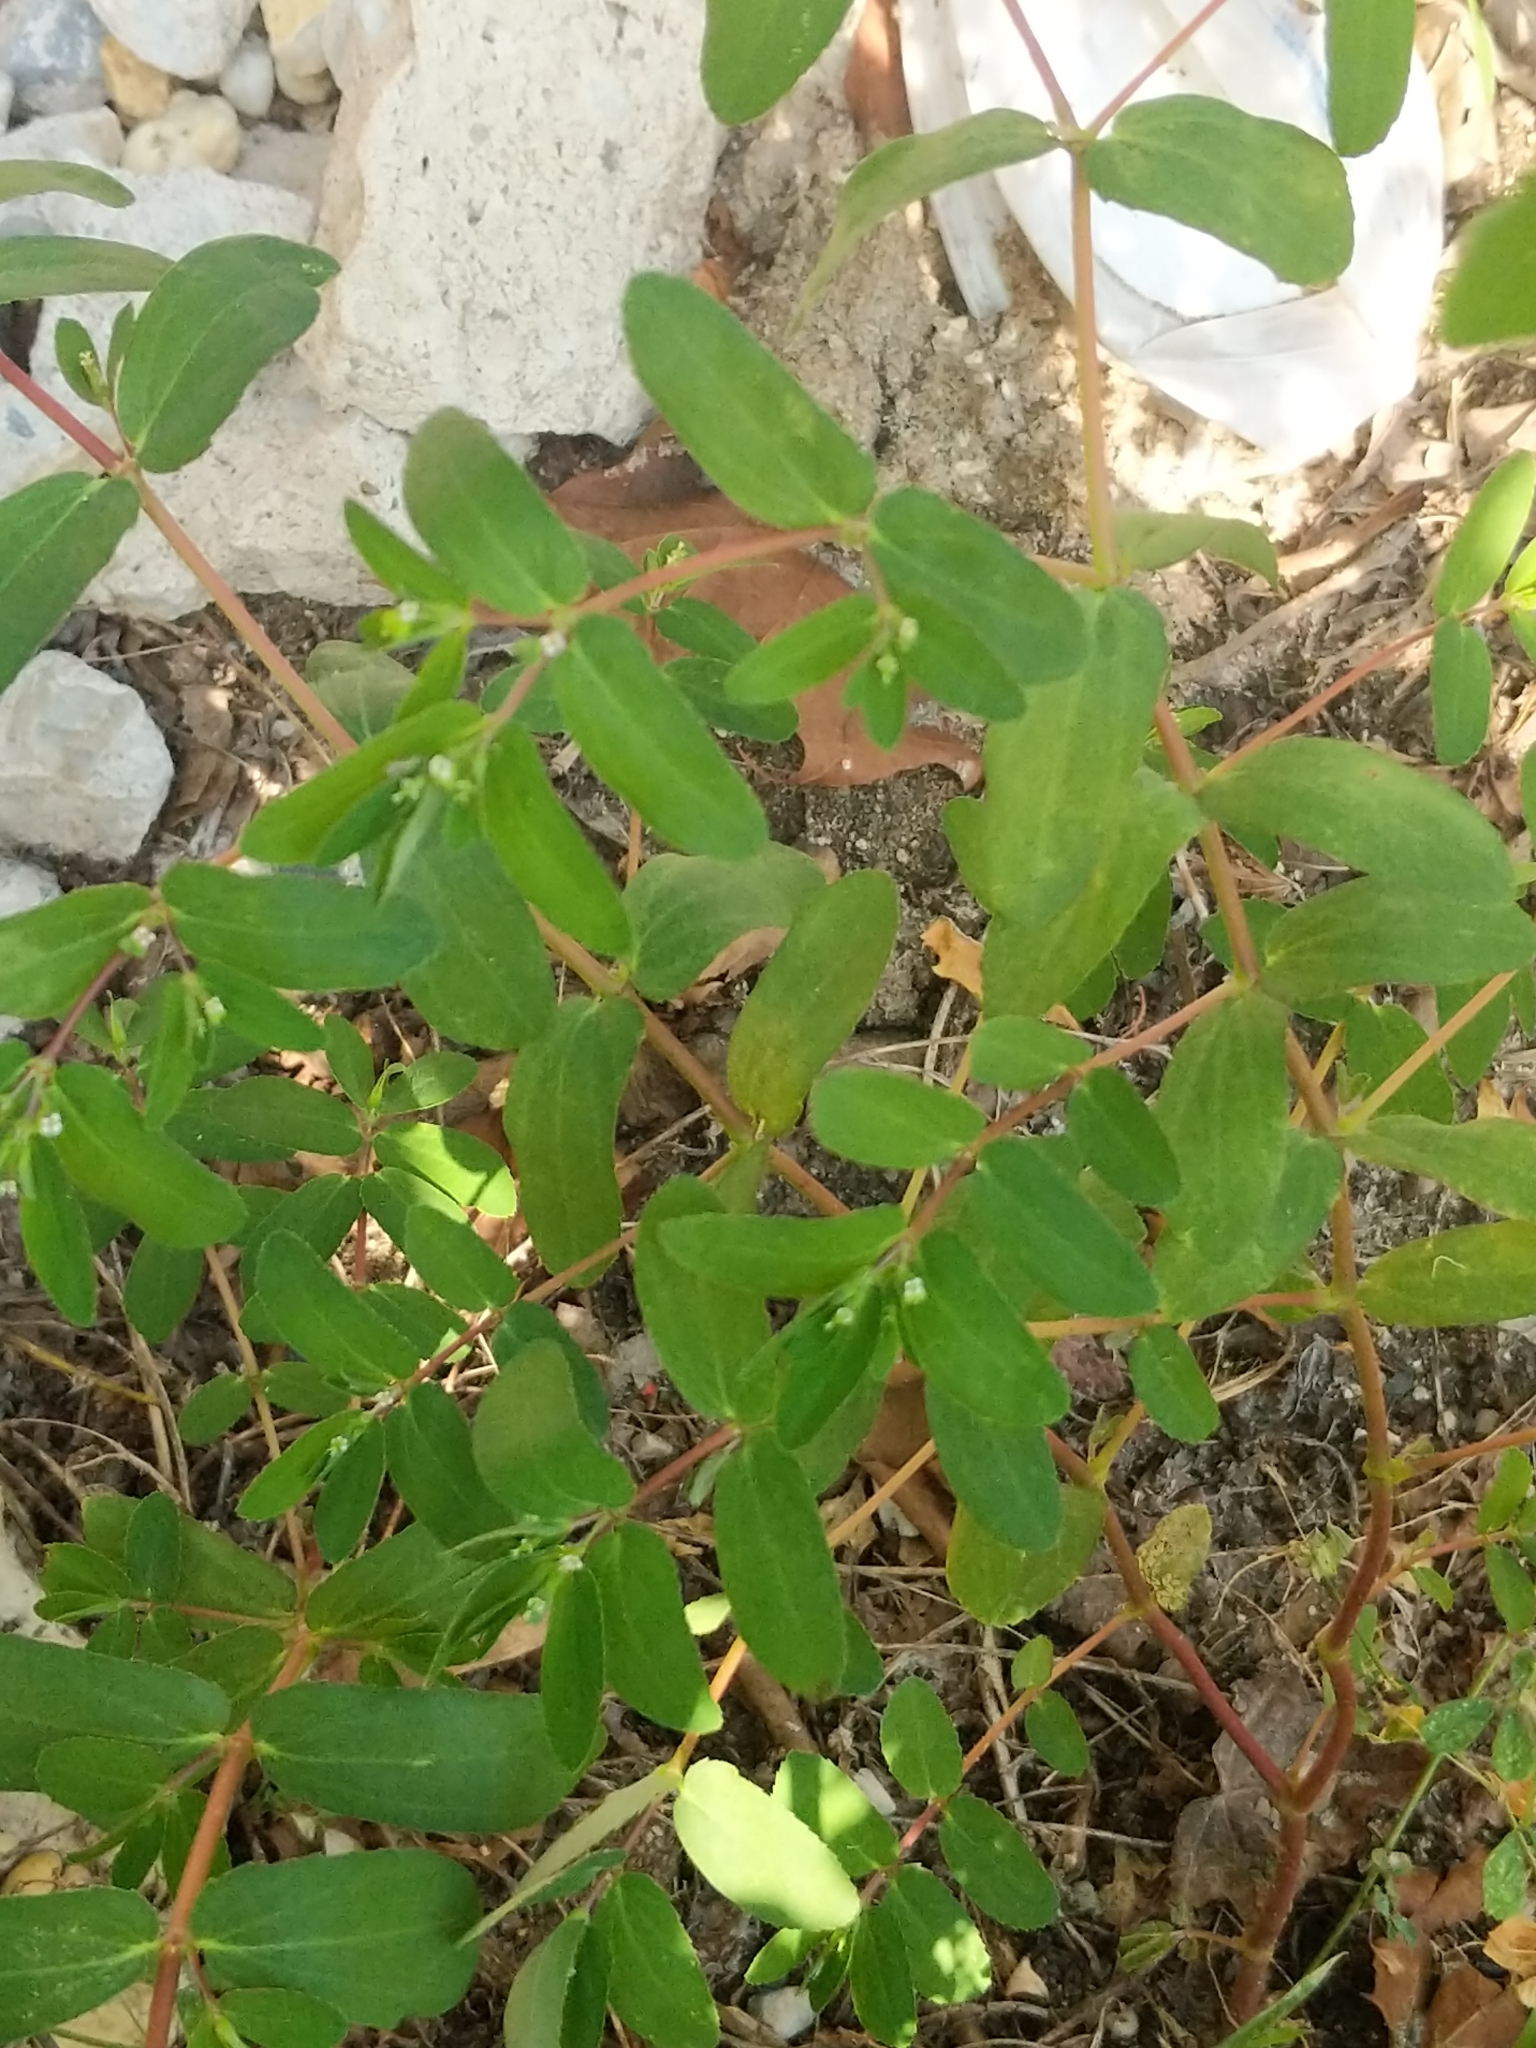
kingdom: Plantae
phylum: Tracheophyta
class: Magnoliopsida
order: Malpighiales
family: Euphorbiaceae
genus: Euphorbia
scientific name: Euphorbia nutans
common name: Eyebane
